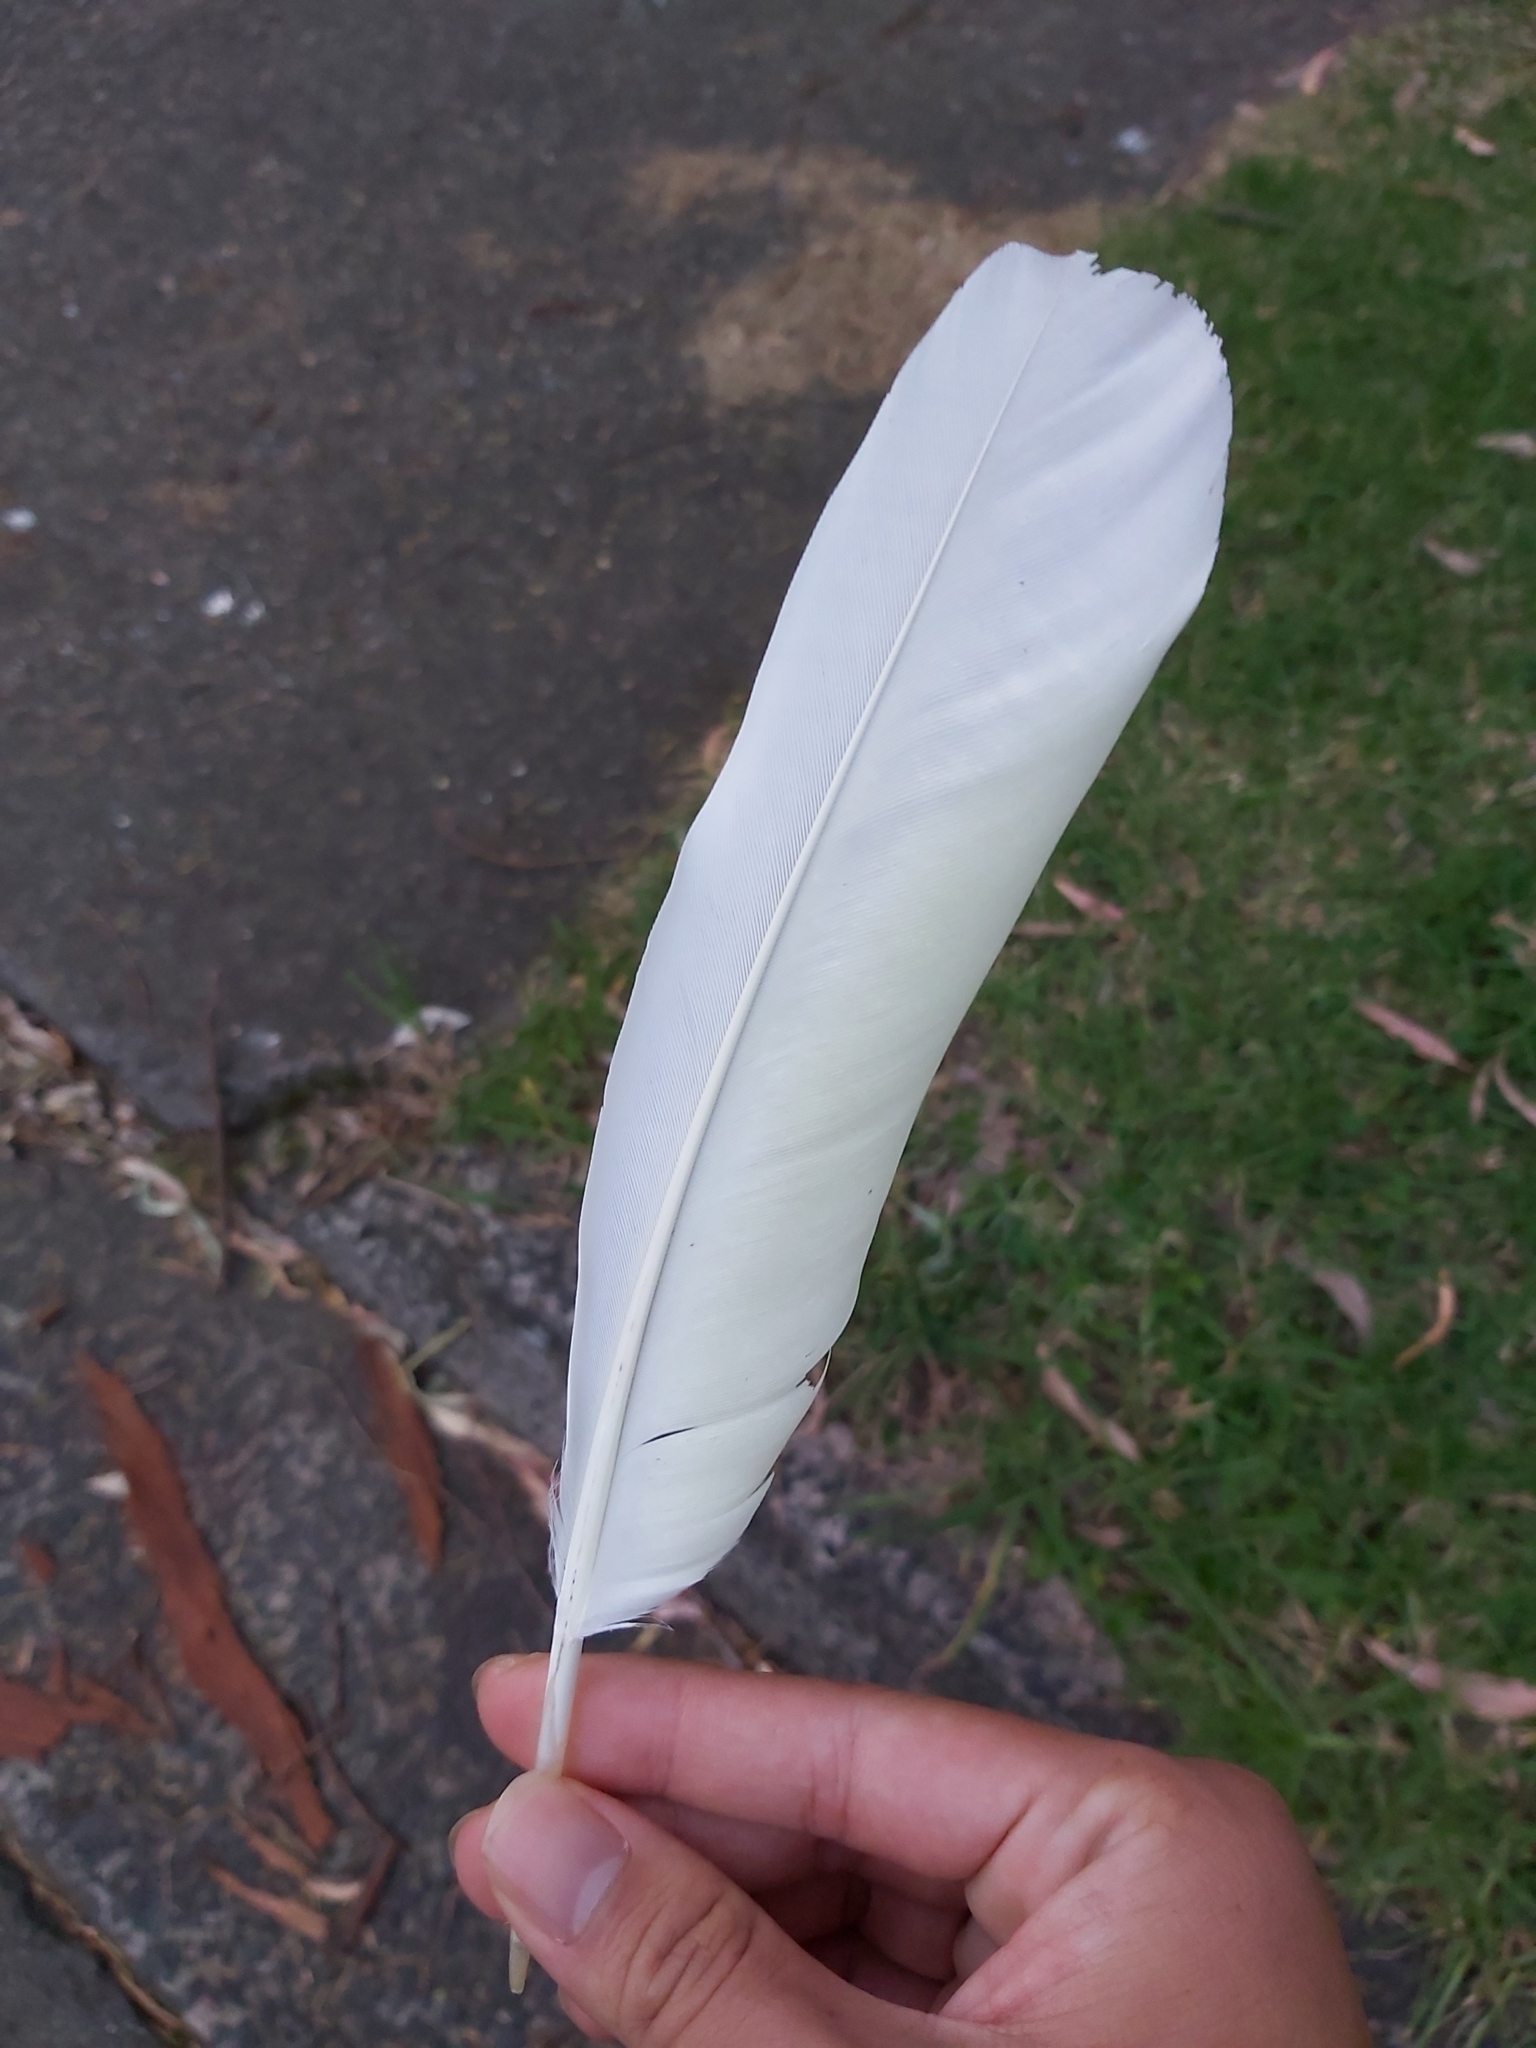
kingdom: Animalia
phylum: Chordata
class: Aves
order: Psittaciformes
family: Psittacidae
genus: Cacatua
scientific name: Cacatua galerita
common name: Sulphur-crested cockatoo
